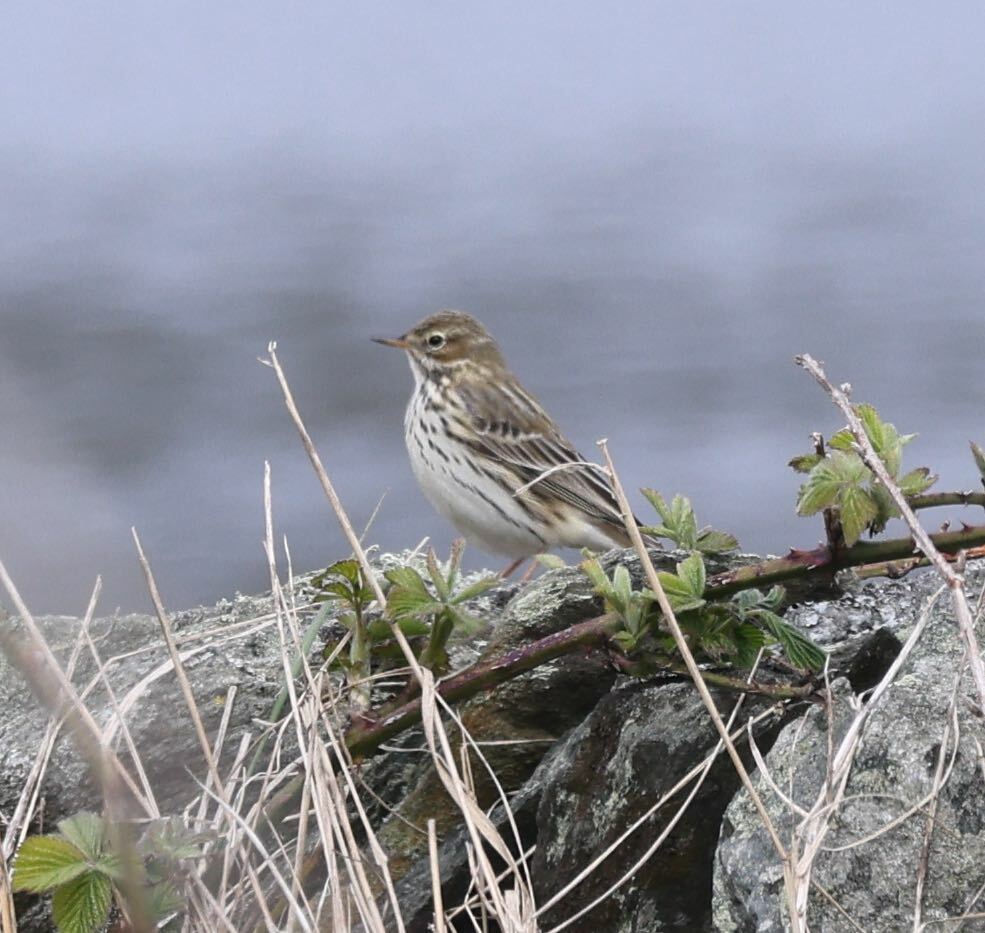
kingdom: Animalia
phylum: Chordata
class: Aves
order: Passeriformes
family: Motacillidae
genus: Anthus
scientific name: Anthus pratensis
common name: Meadow pipit
